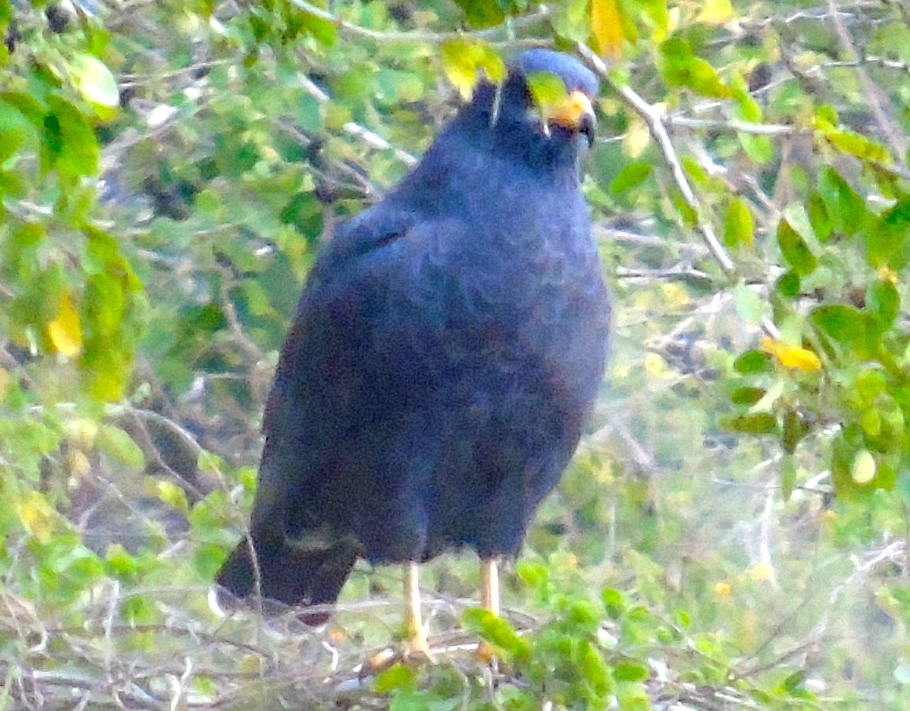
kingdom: Animalia
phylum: Chordata
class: Aves
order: Accipitriformes
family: Accipitridae
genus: Buteogallus
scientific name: Buteogallus anthracinus
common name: Common black hawk
